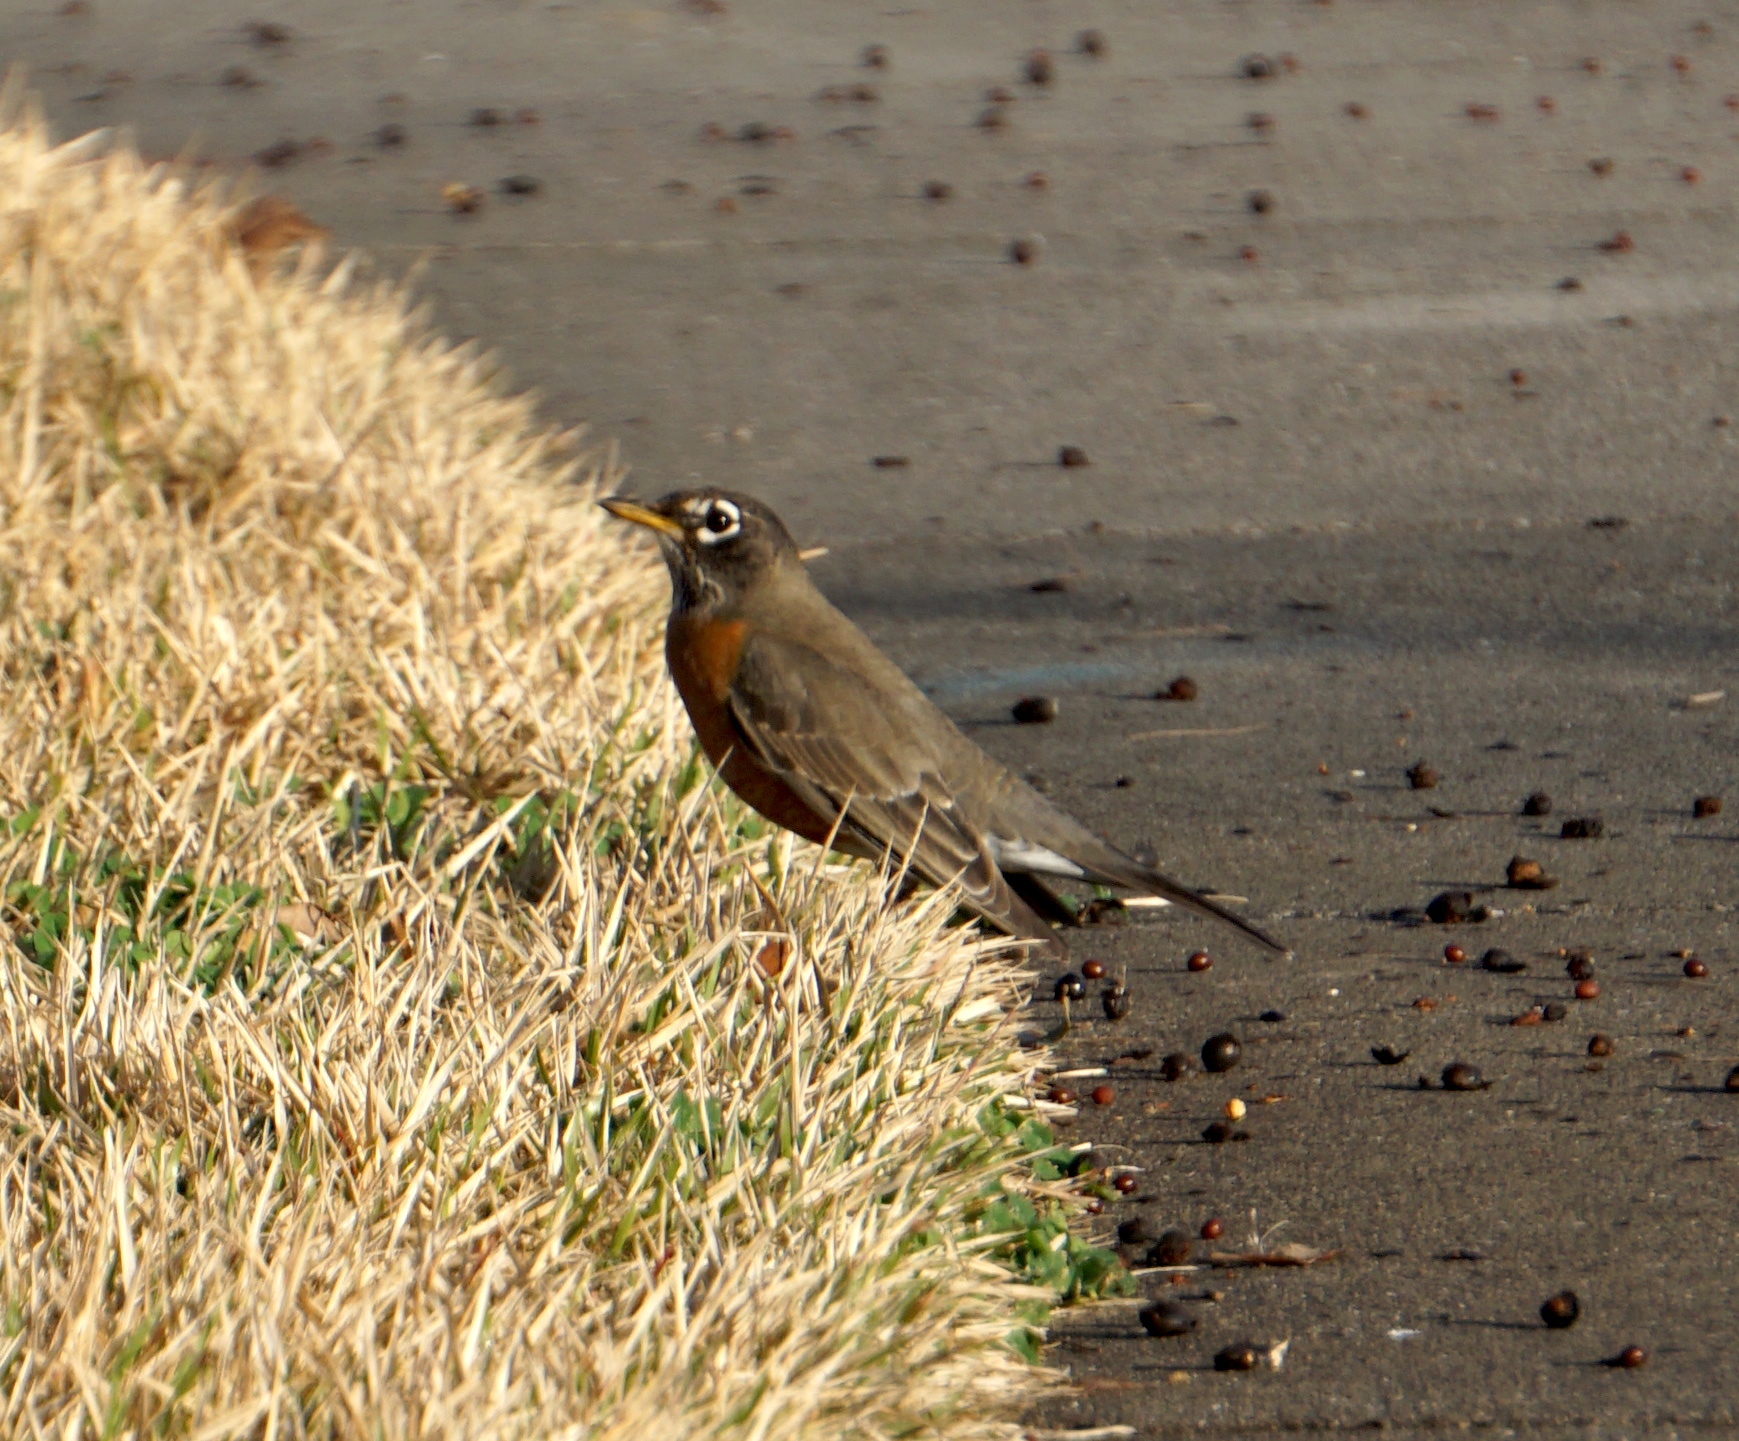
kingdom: Animalia
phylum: Chordata
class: Aves
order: Passeriformes
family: Turdidae
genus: Turdus
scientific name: Turdus migratorius
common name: American robin
